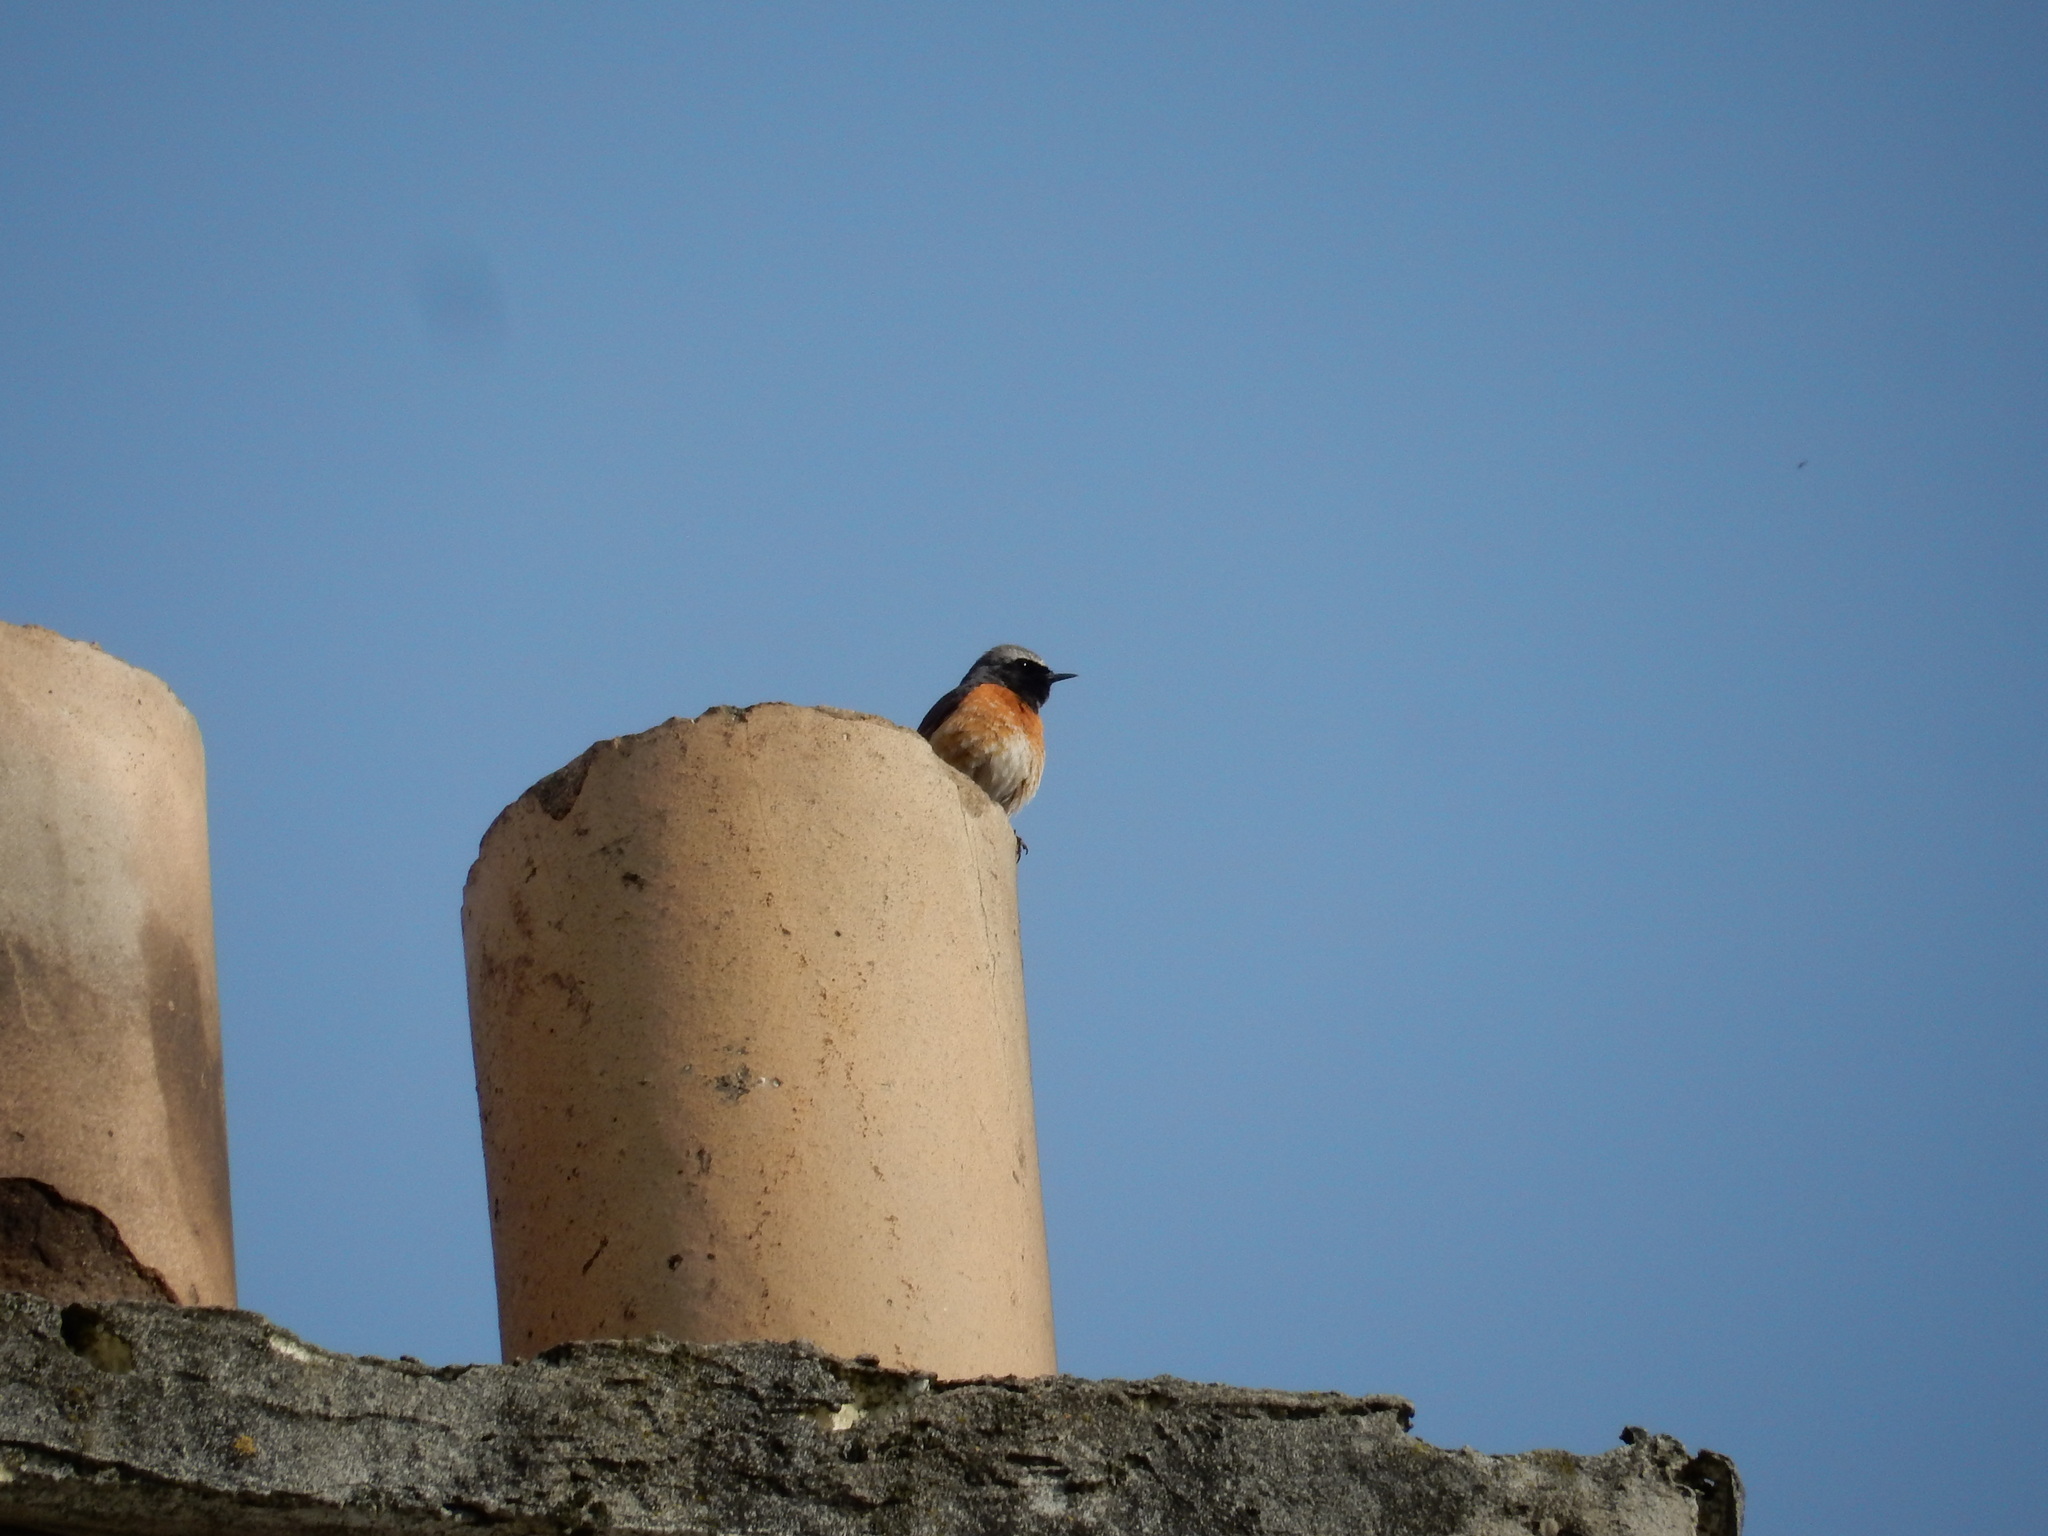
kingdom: Animalia
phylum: Chordata
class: Aves
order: Passeriformes
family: Muscicapidae
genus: Phoenicurus
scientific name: Phoenicurus phoenicurus
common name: Common redstart
